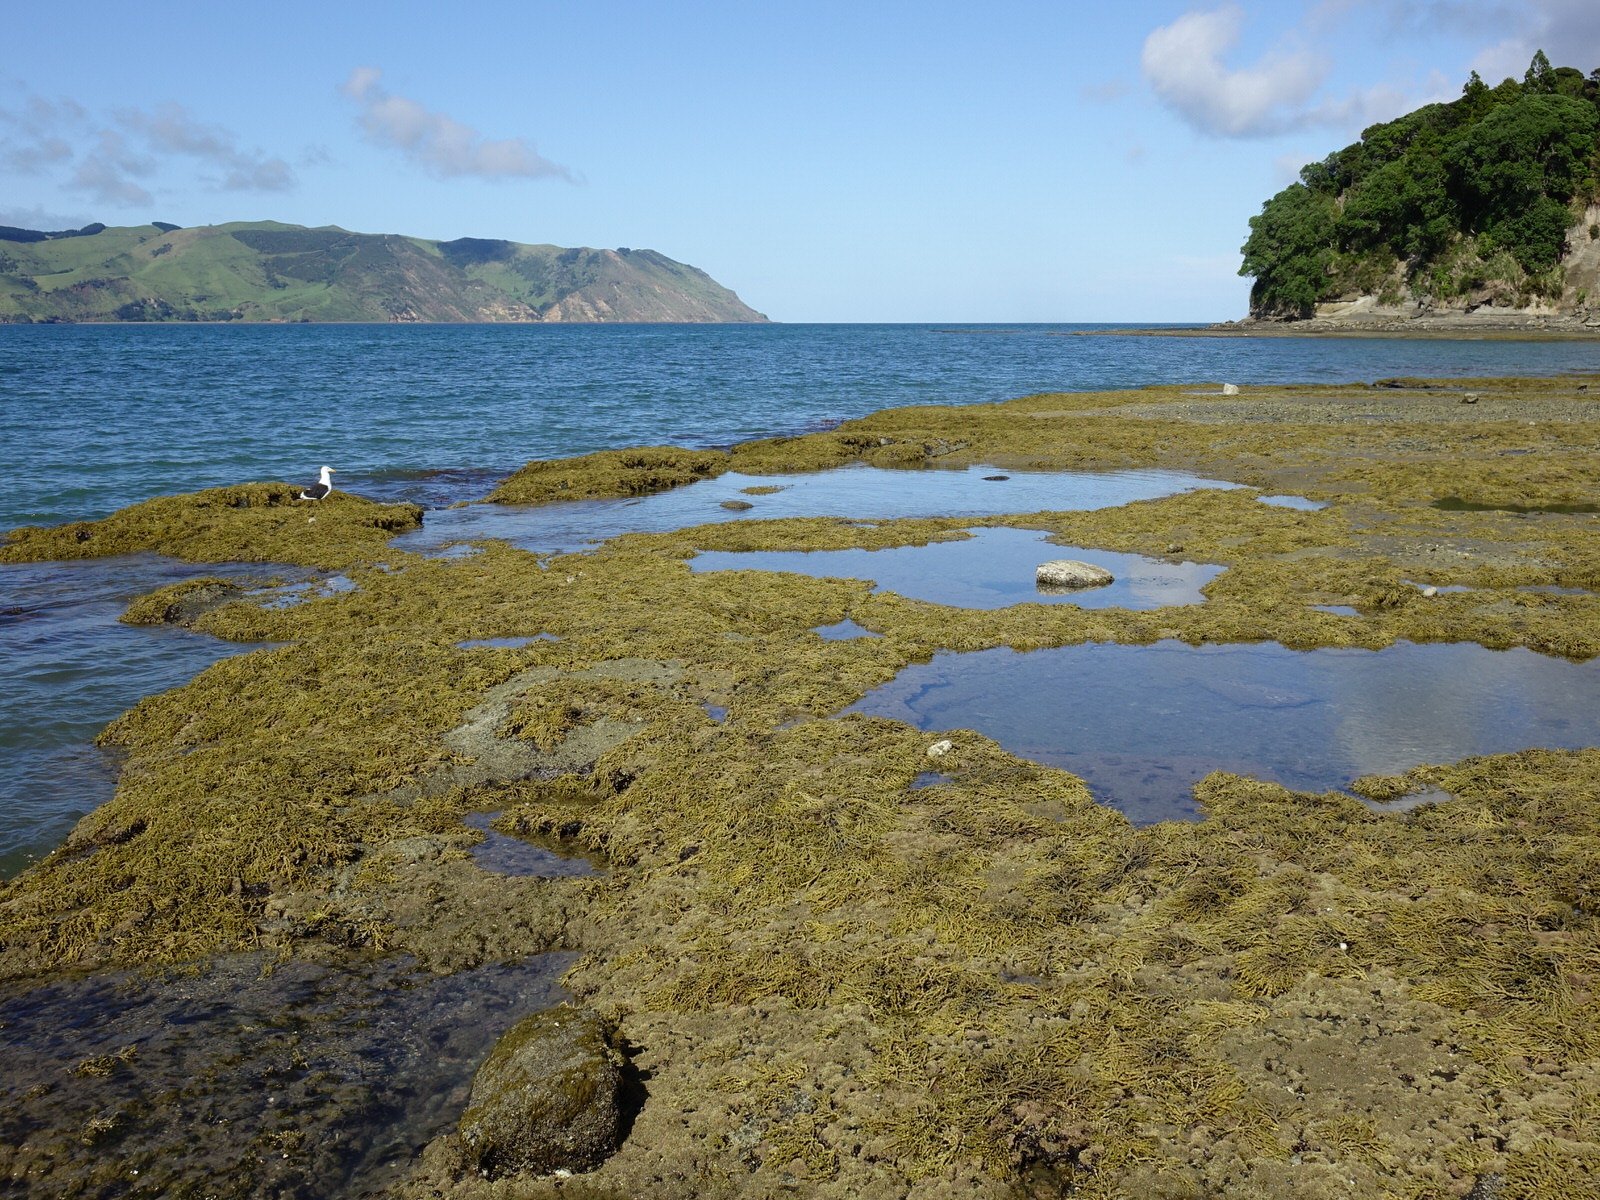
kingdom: Chromista
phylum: Ochrophyta
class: Phaeophyceae
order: Fucales
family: Hormosiraceae
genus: Hormosira
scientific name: Hormosira banksii
